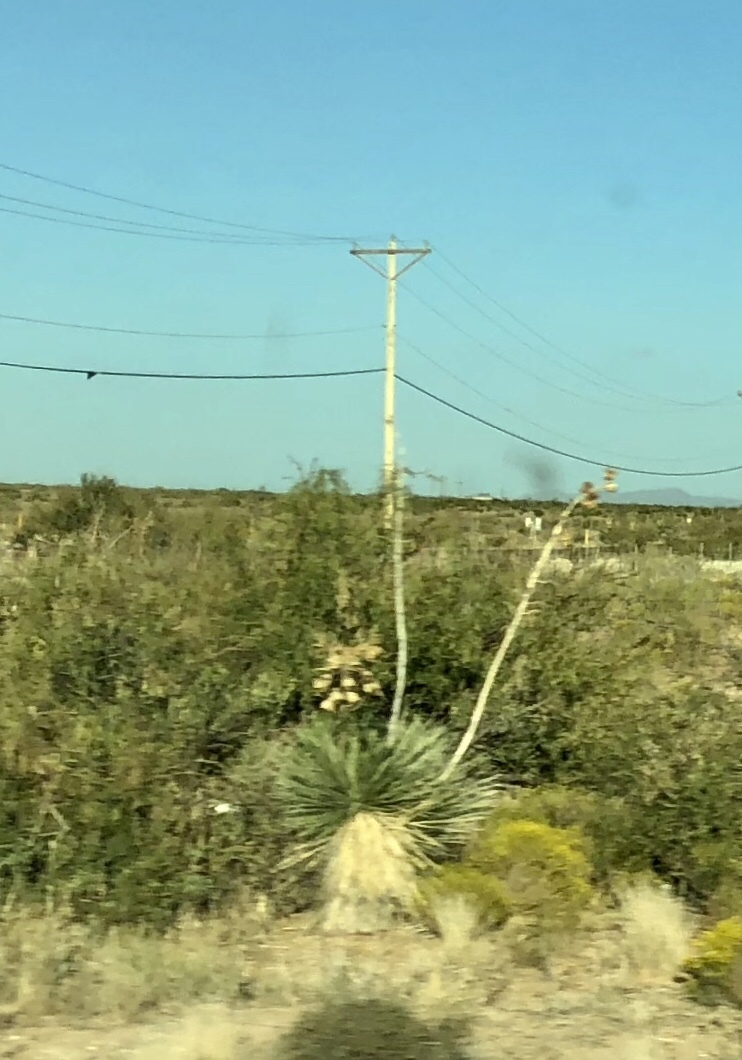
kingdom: Plantae
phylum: Tracheophyta
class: Liliopsida
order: Asparagales
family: Asparagaceae
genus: Yucca
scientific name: Yucca elata
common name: Palmella
